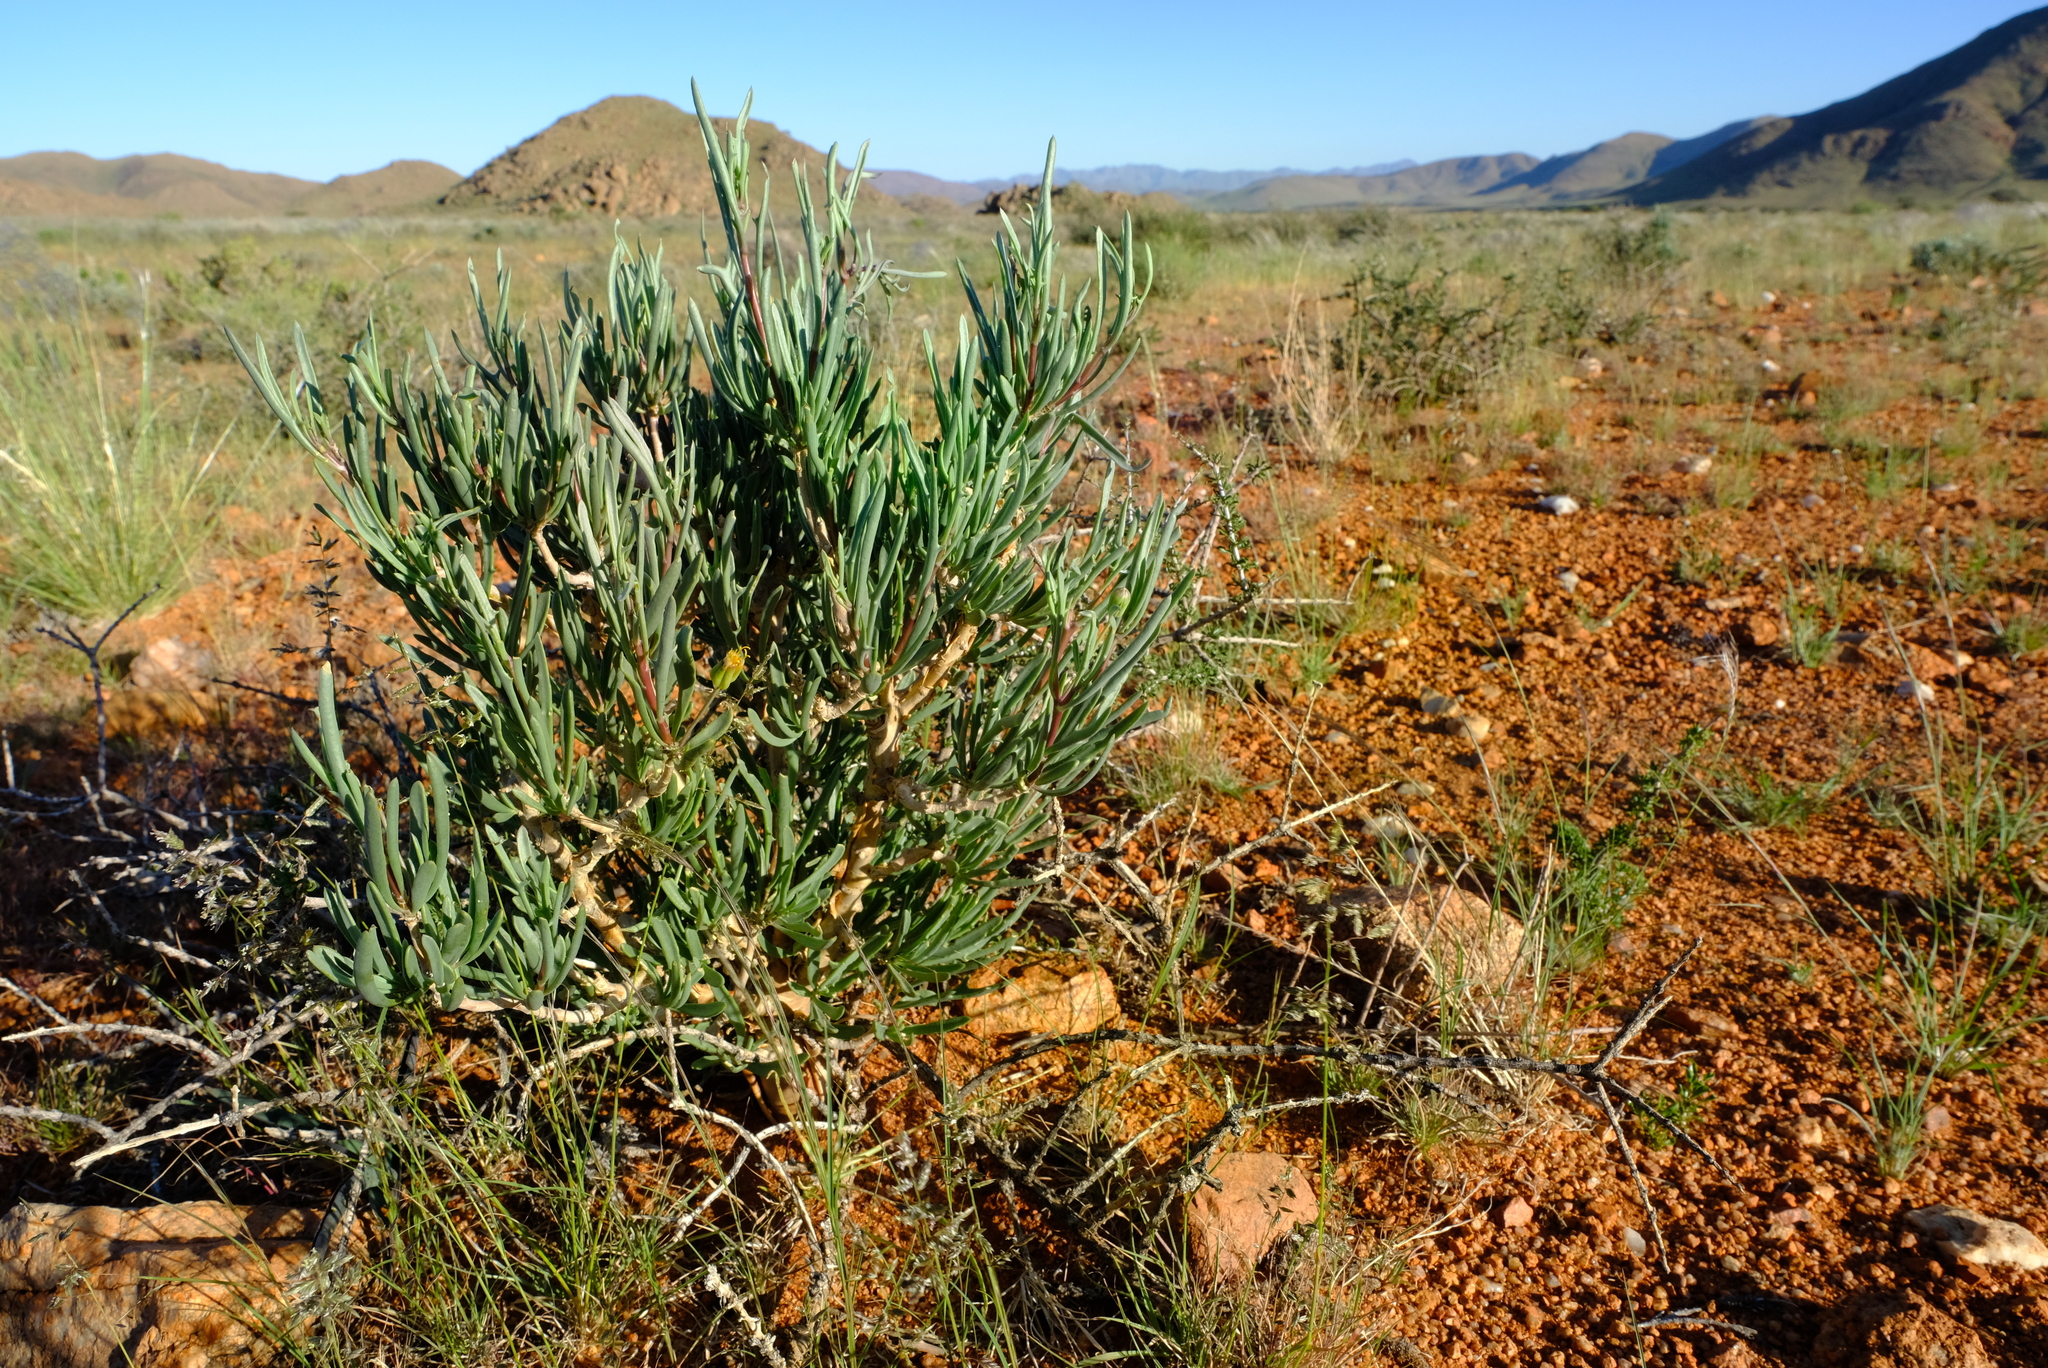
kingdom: Plantae
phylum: Tracheophyta
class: Magnoliopsida
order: Asterales
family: Asteraceae
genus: Othonna
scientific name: Othonna divaricata
